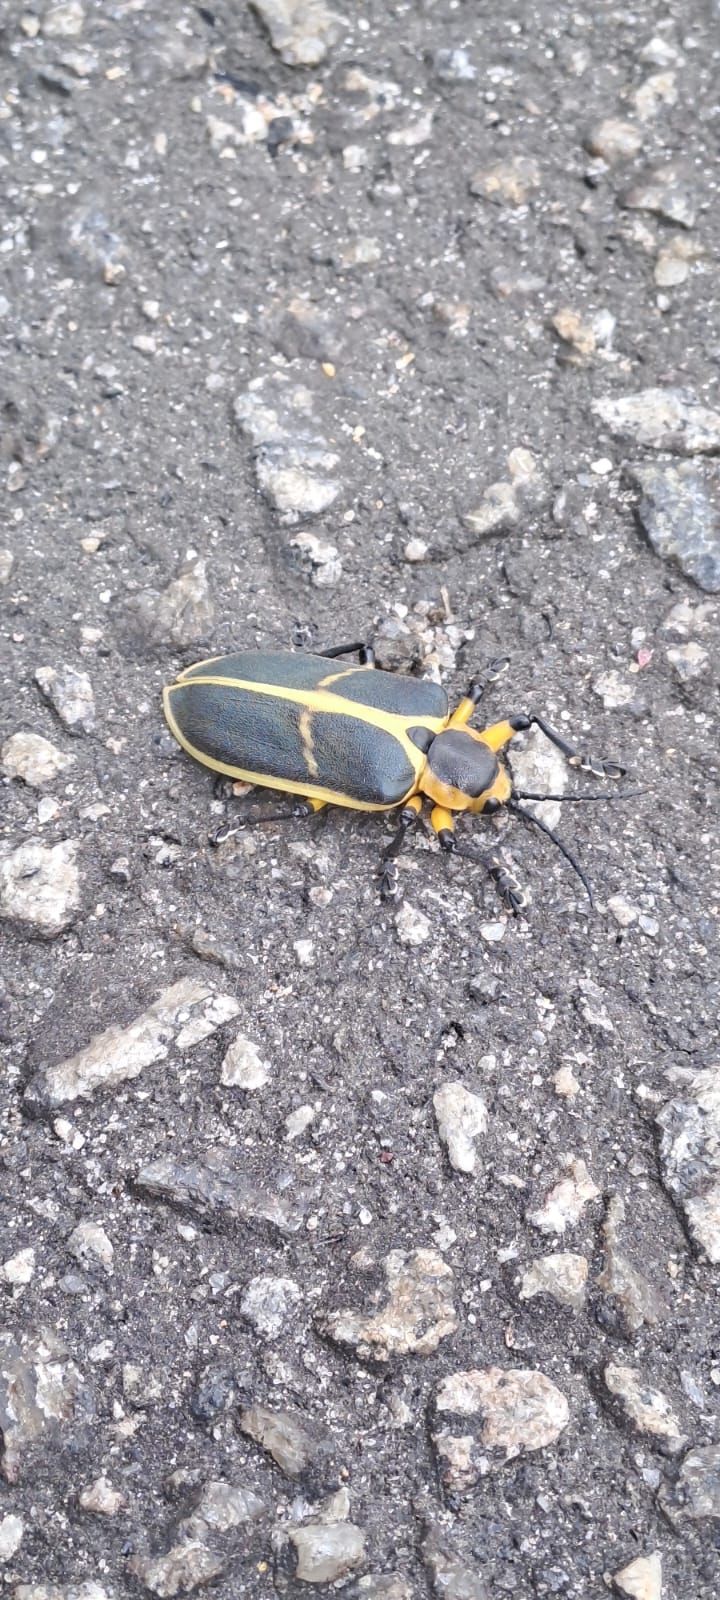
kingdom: Animalia
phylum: Arthropoda
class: Insecta
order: Coleoptera
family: Chrysomelidae
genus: Mecistomela
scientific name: Mecistomela marginata
